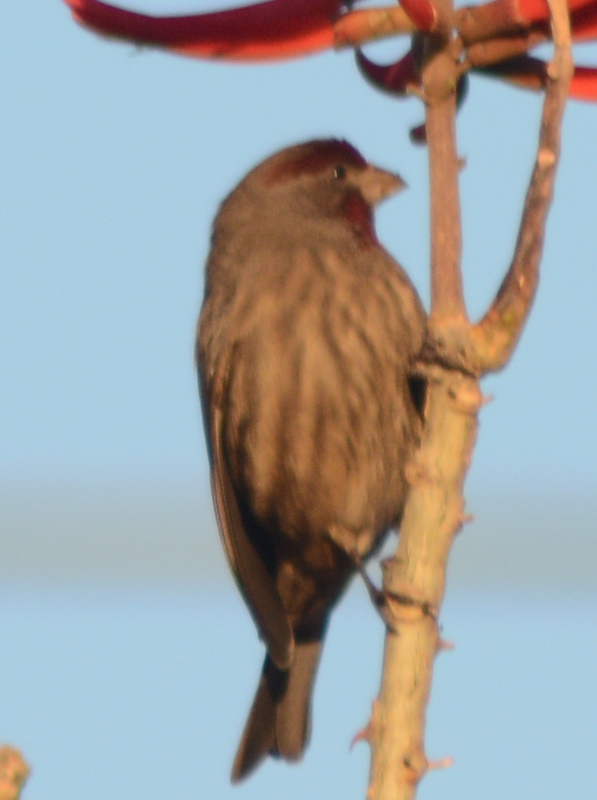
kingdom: Animalia
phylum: Chordata
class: Aves
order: Passeriformes
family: Fringillidae
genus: Haemorhous
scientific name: Haemorhous mexicanus
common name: House finch
